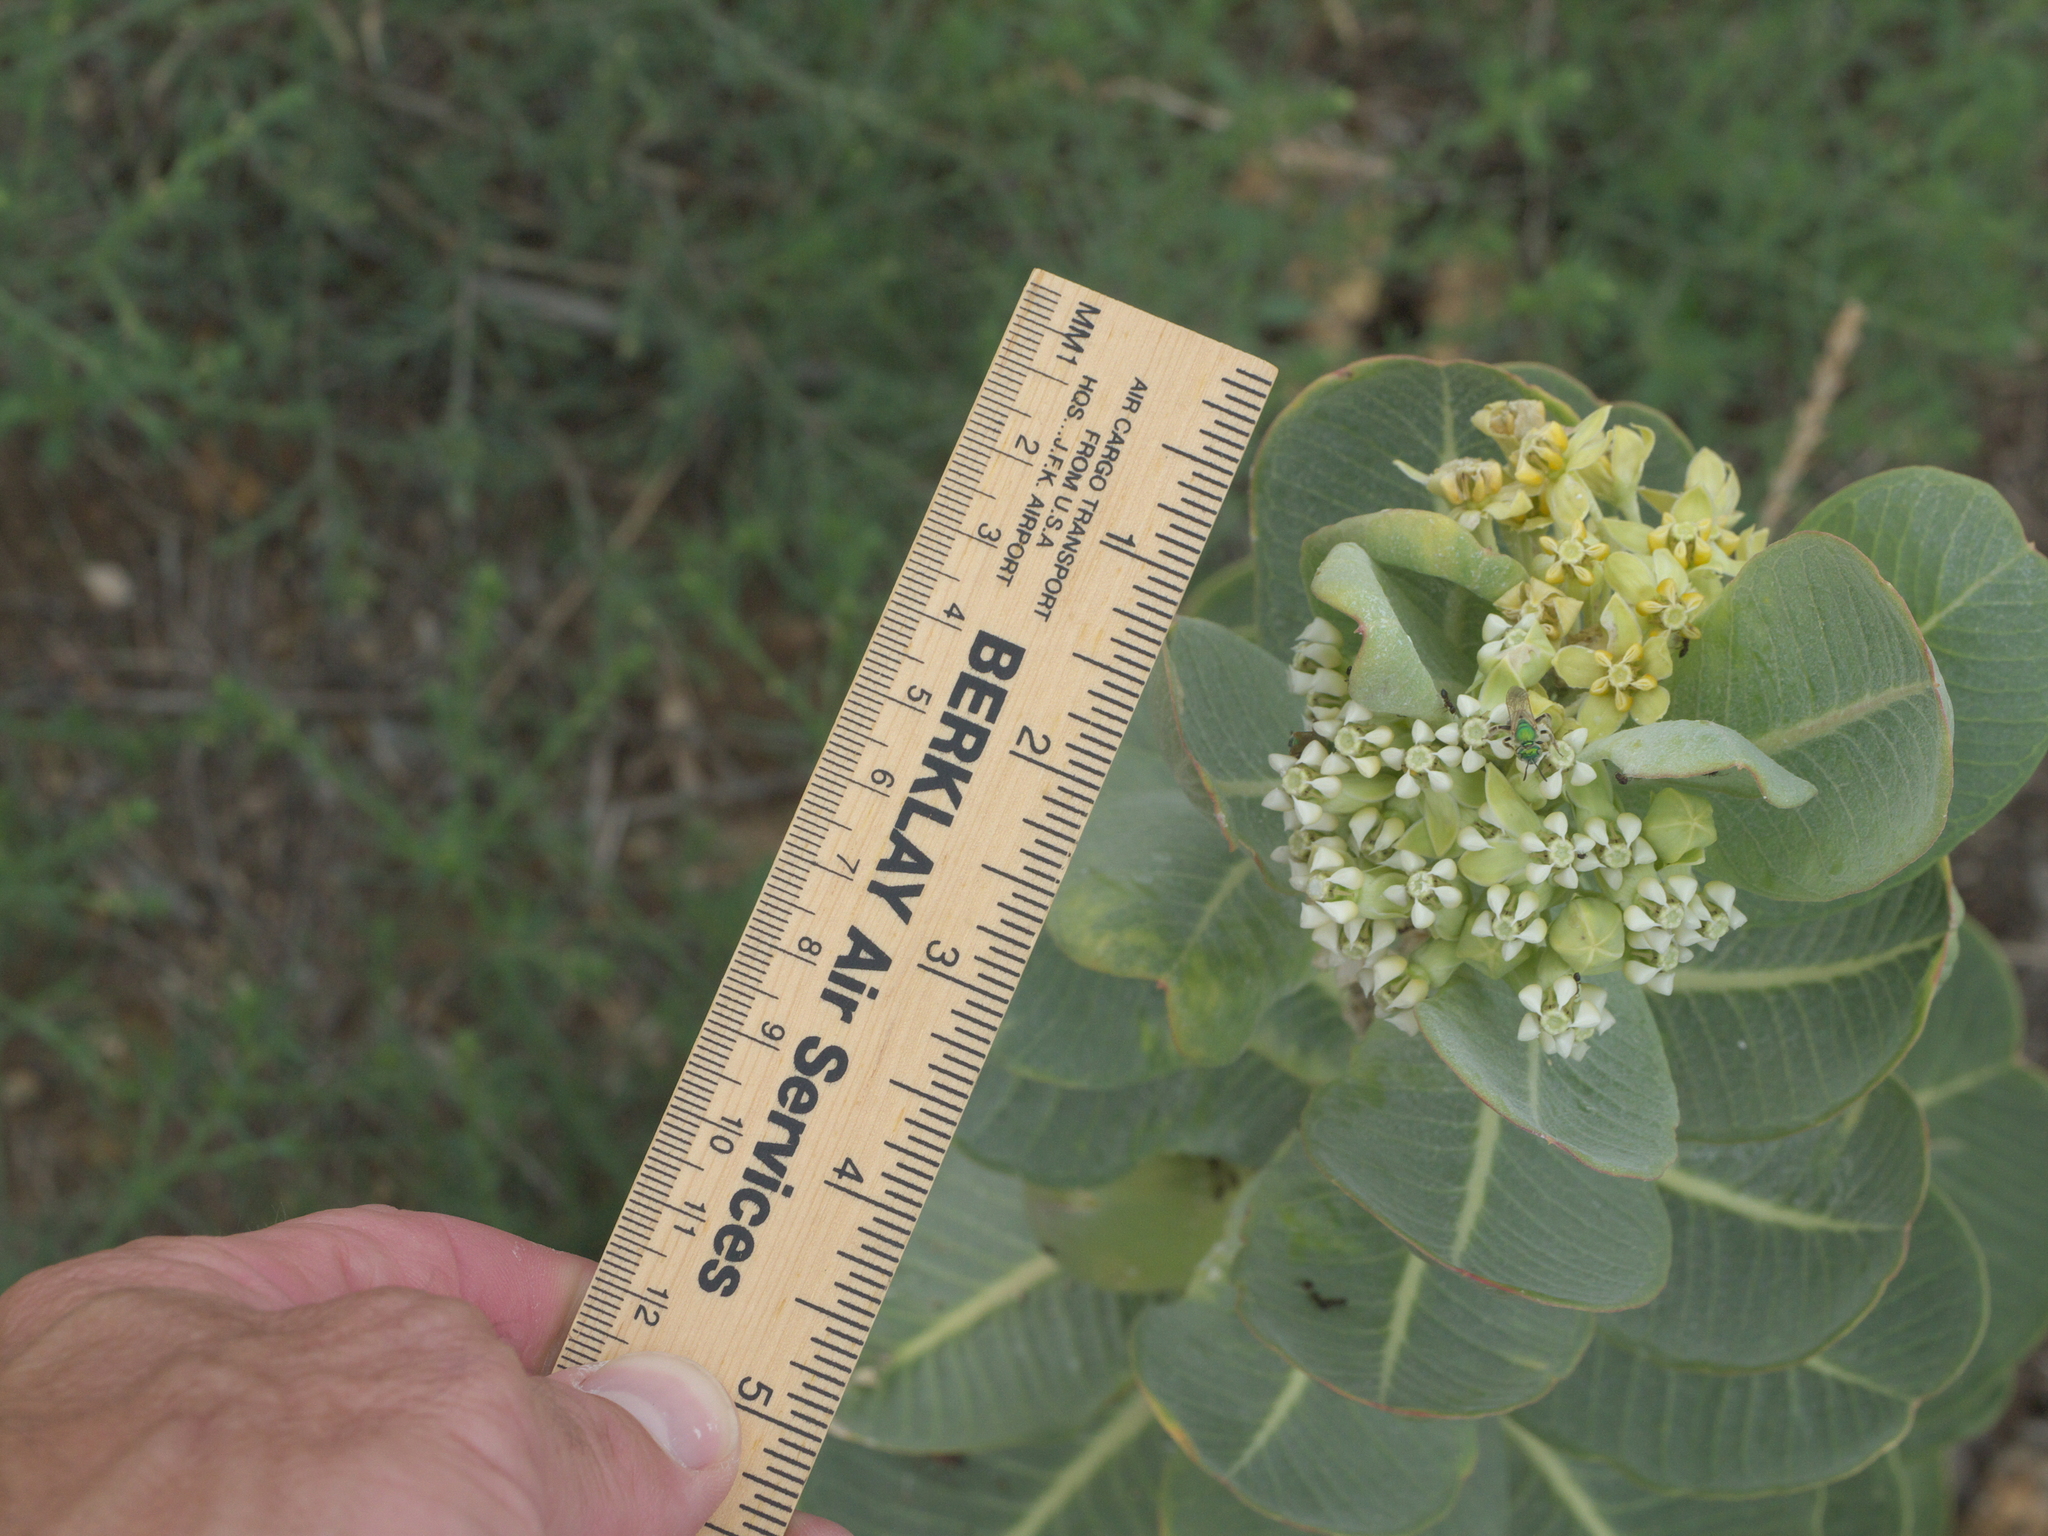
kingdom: Plantae
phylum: Tracheophyta
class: Magnoliopsida
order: Gentianales
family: Apocynaceae
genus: Asclepias
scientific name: Asclepias latifolia
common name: Broadleaf milkweed
